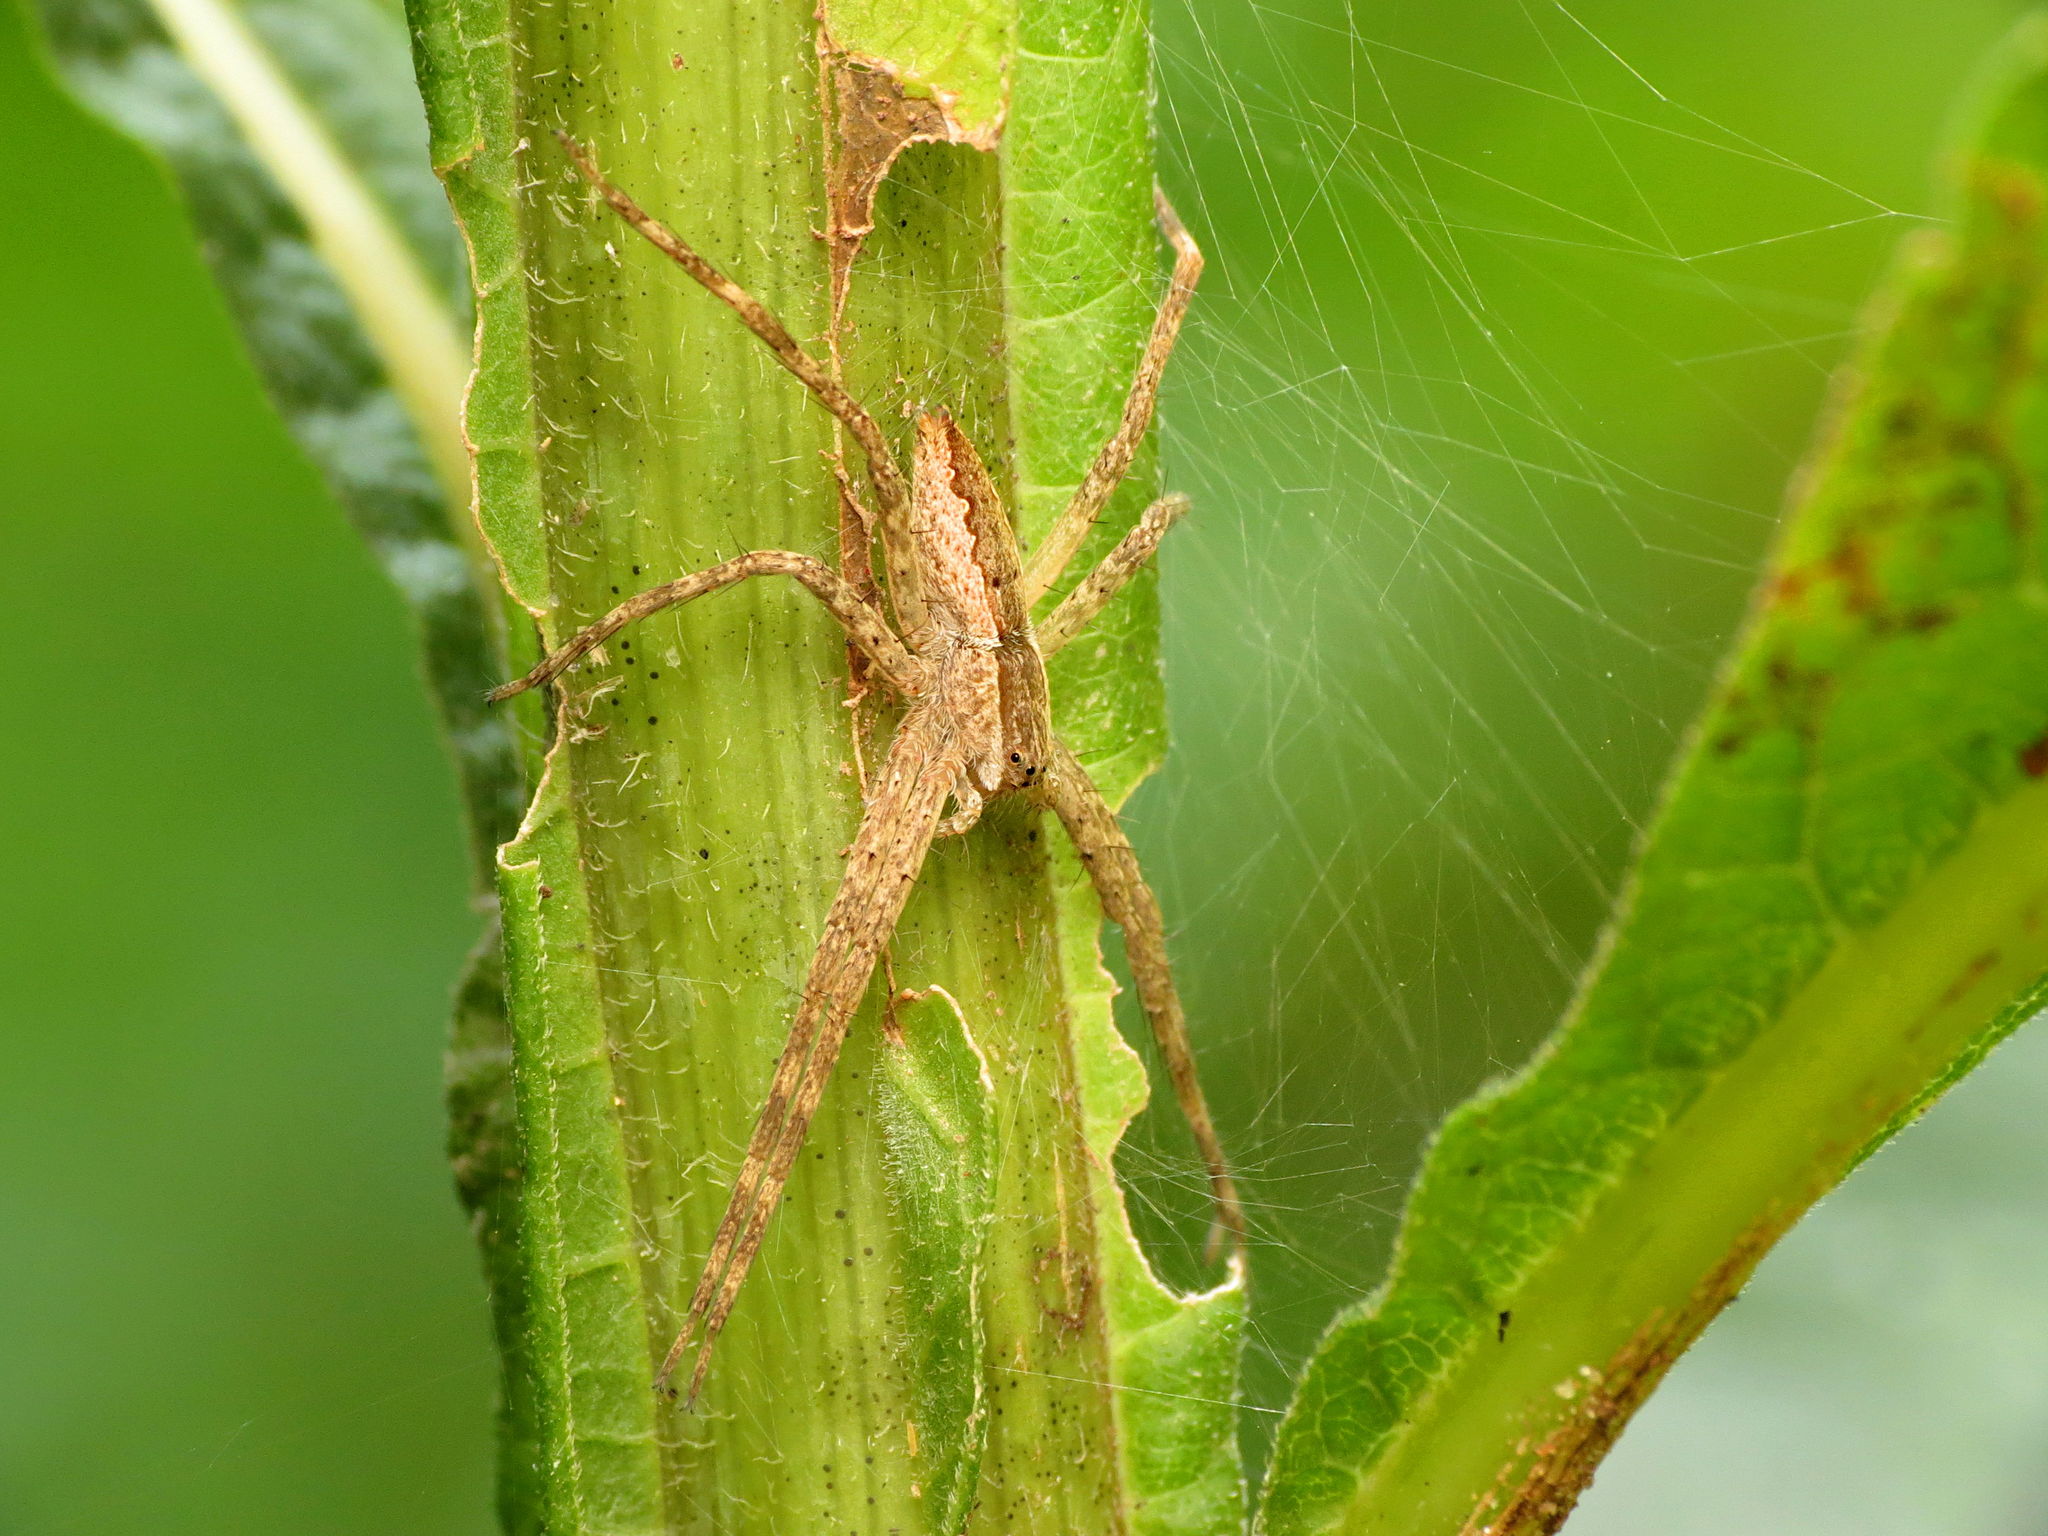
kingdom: Animalia
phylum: Arthropoda
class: Arachnida
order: Araneae
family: Pisauridae
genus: Pisaurina
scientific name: Pisaurina mira
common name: American nursery web spider
